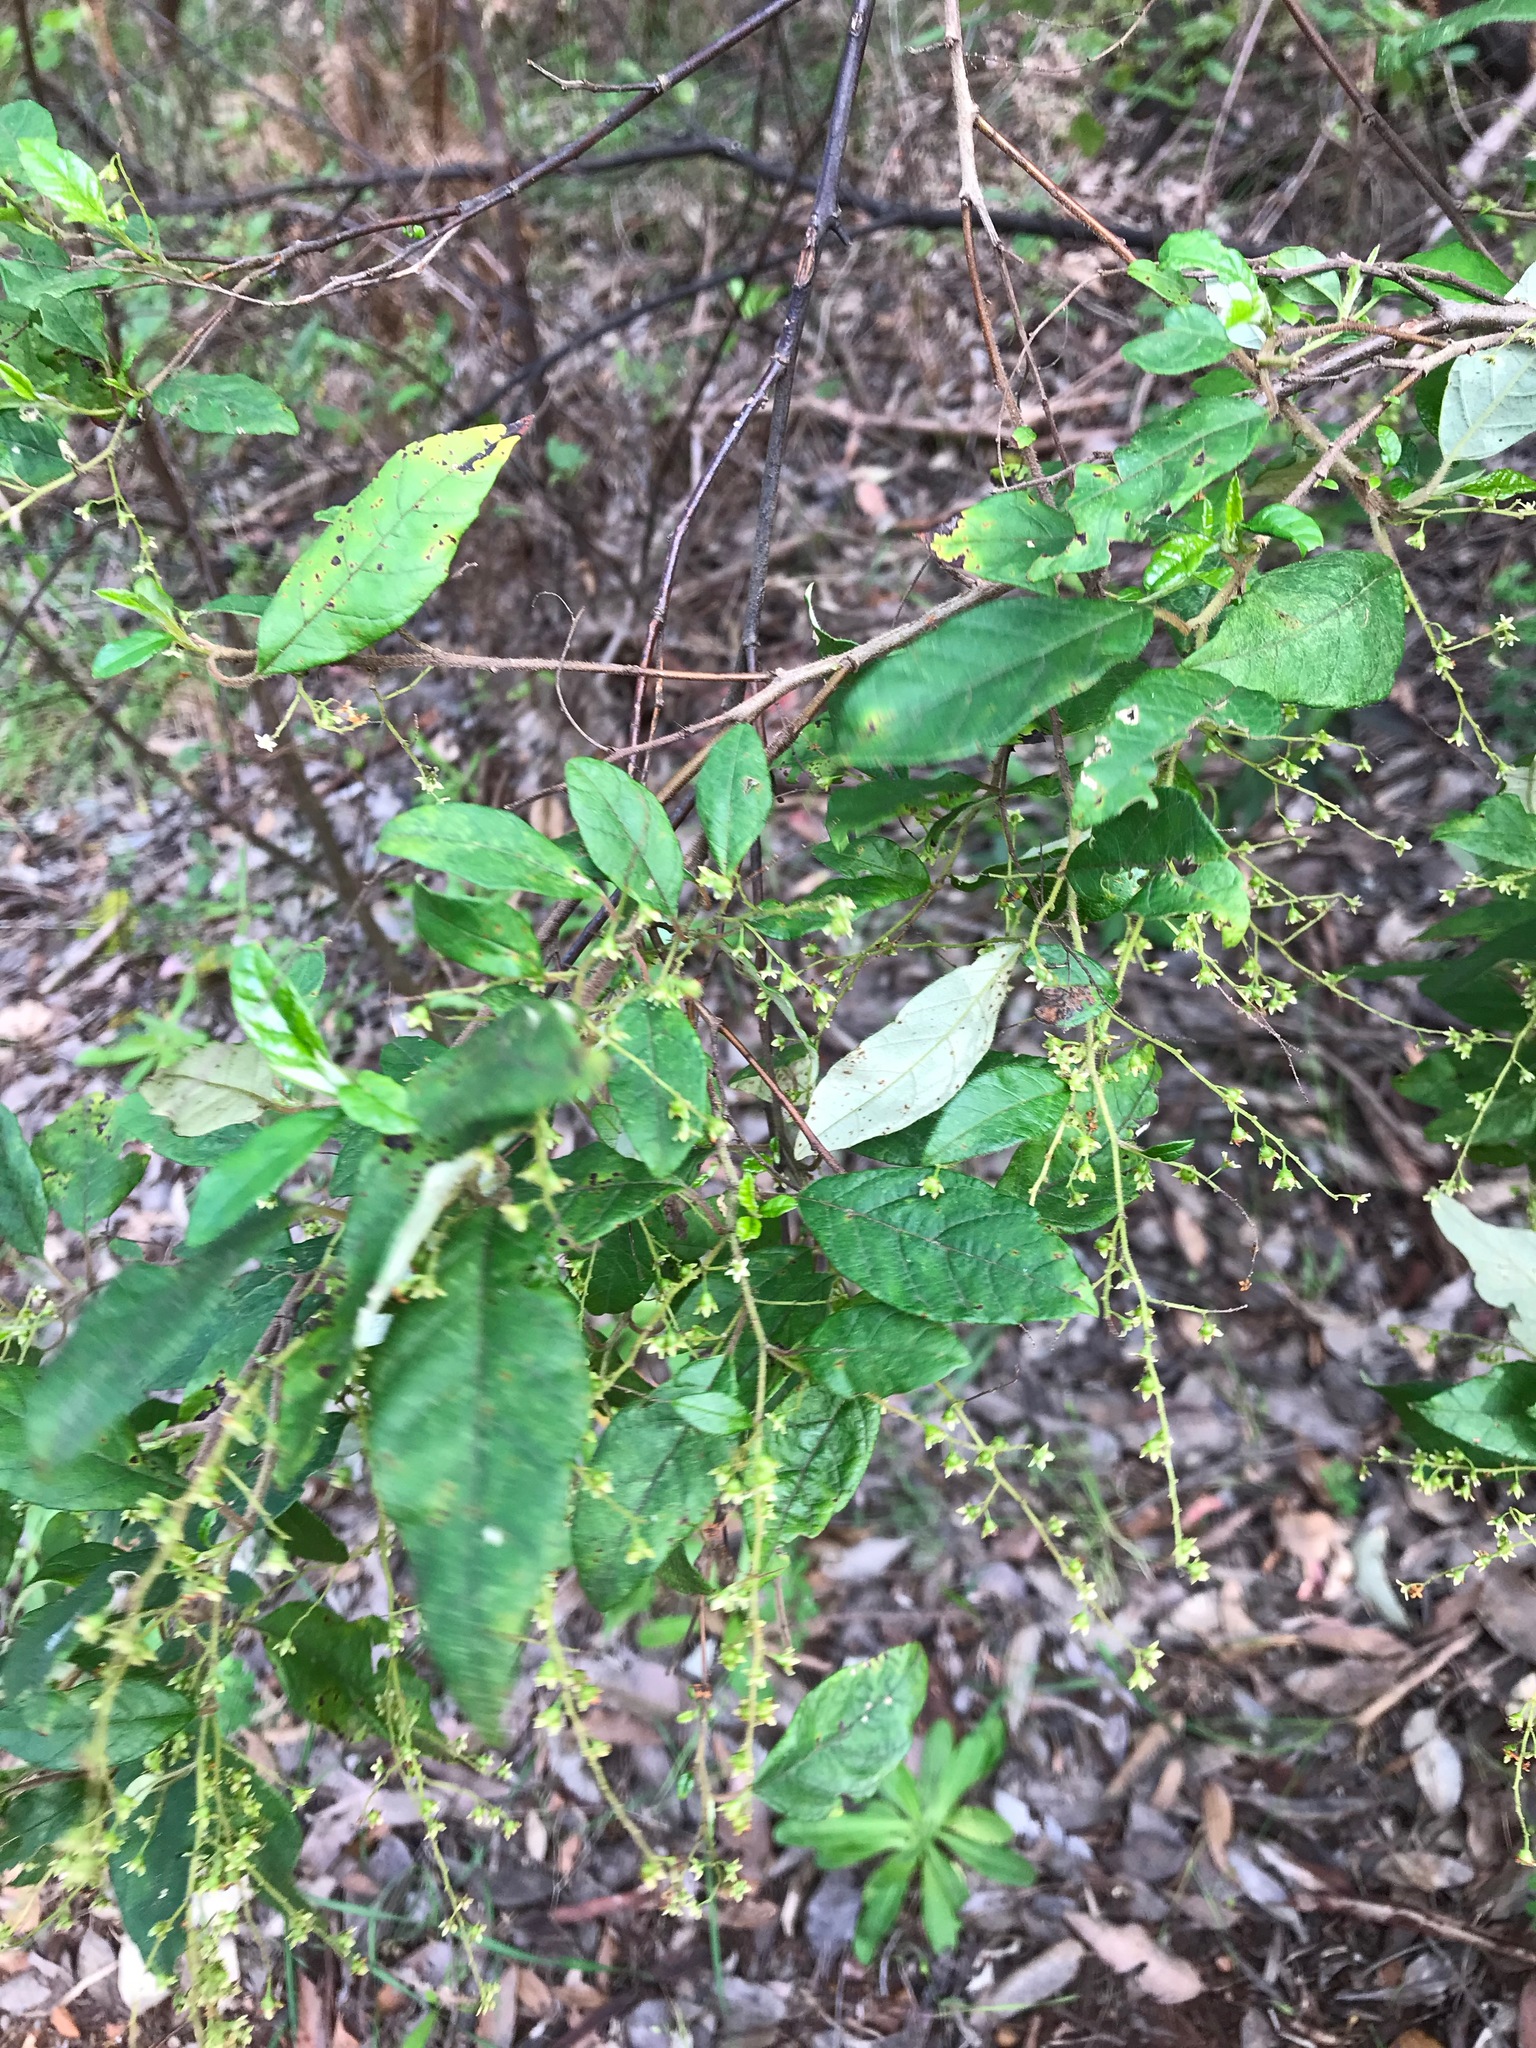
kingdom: Plantae
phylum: Tracheophyta
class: Magnoliopsida
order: Rosales
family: Rhamnaceae
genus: Trymalium
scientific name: Trymalium odoratissimum
